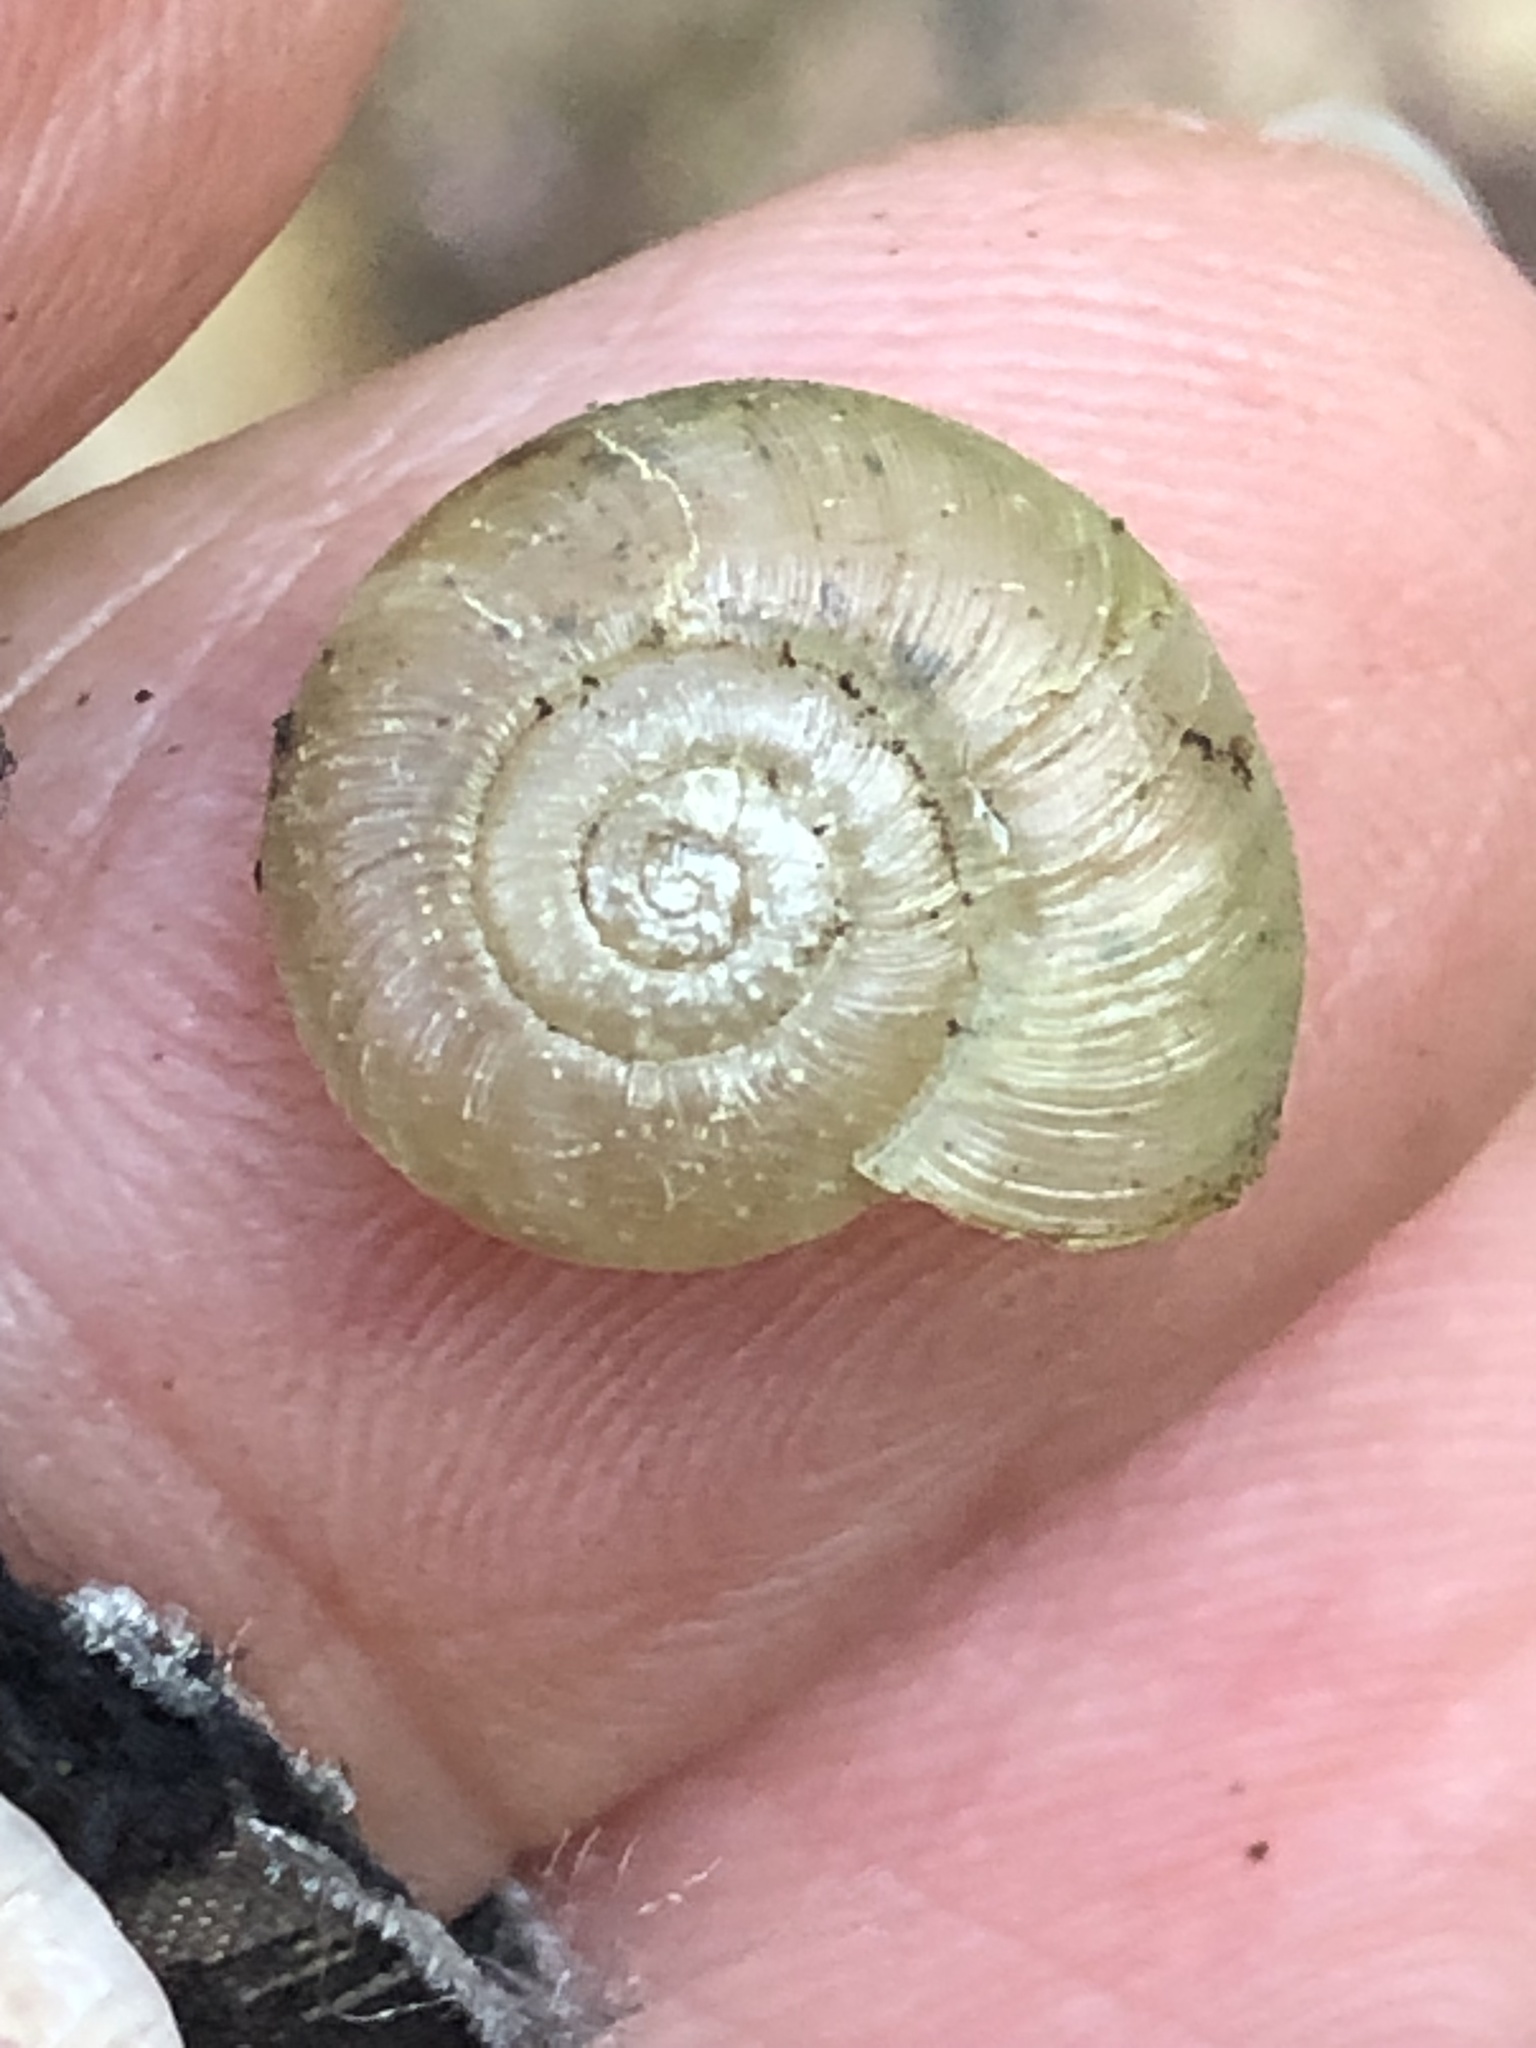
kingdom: Animalia
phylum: Mollusca
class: Gastropoda
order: Stylommatophora
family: Haplotrematidae
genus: Haplotrema
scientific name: Haplotrema minimum
